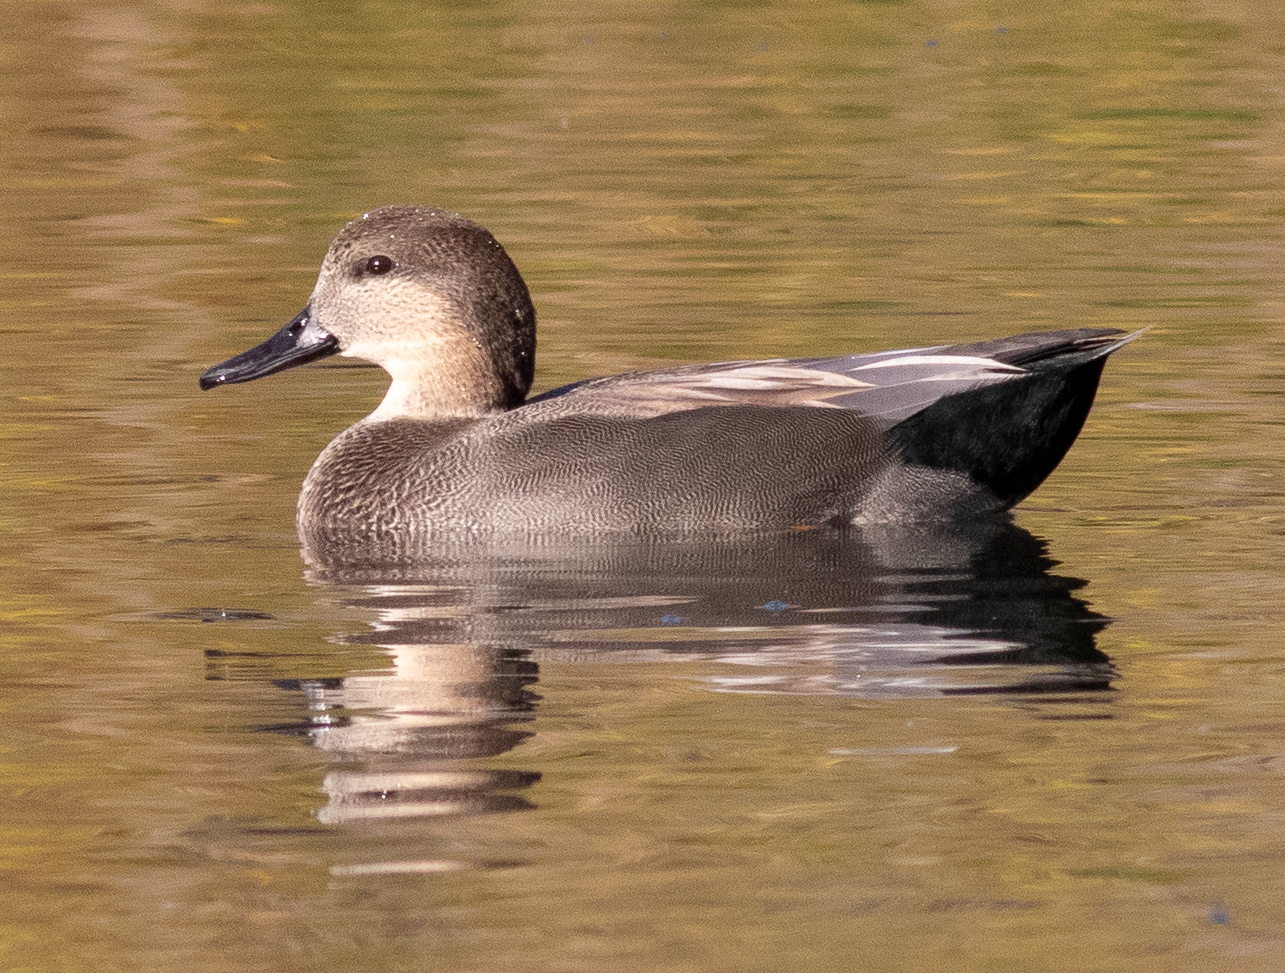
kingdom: Animalia
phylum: Chordata
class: Aves
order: Anseriformes
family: Anatidae
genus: Mareca
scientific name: Mareca strepera
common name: Gadwall
